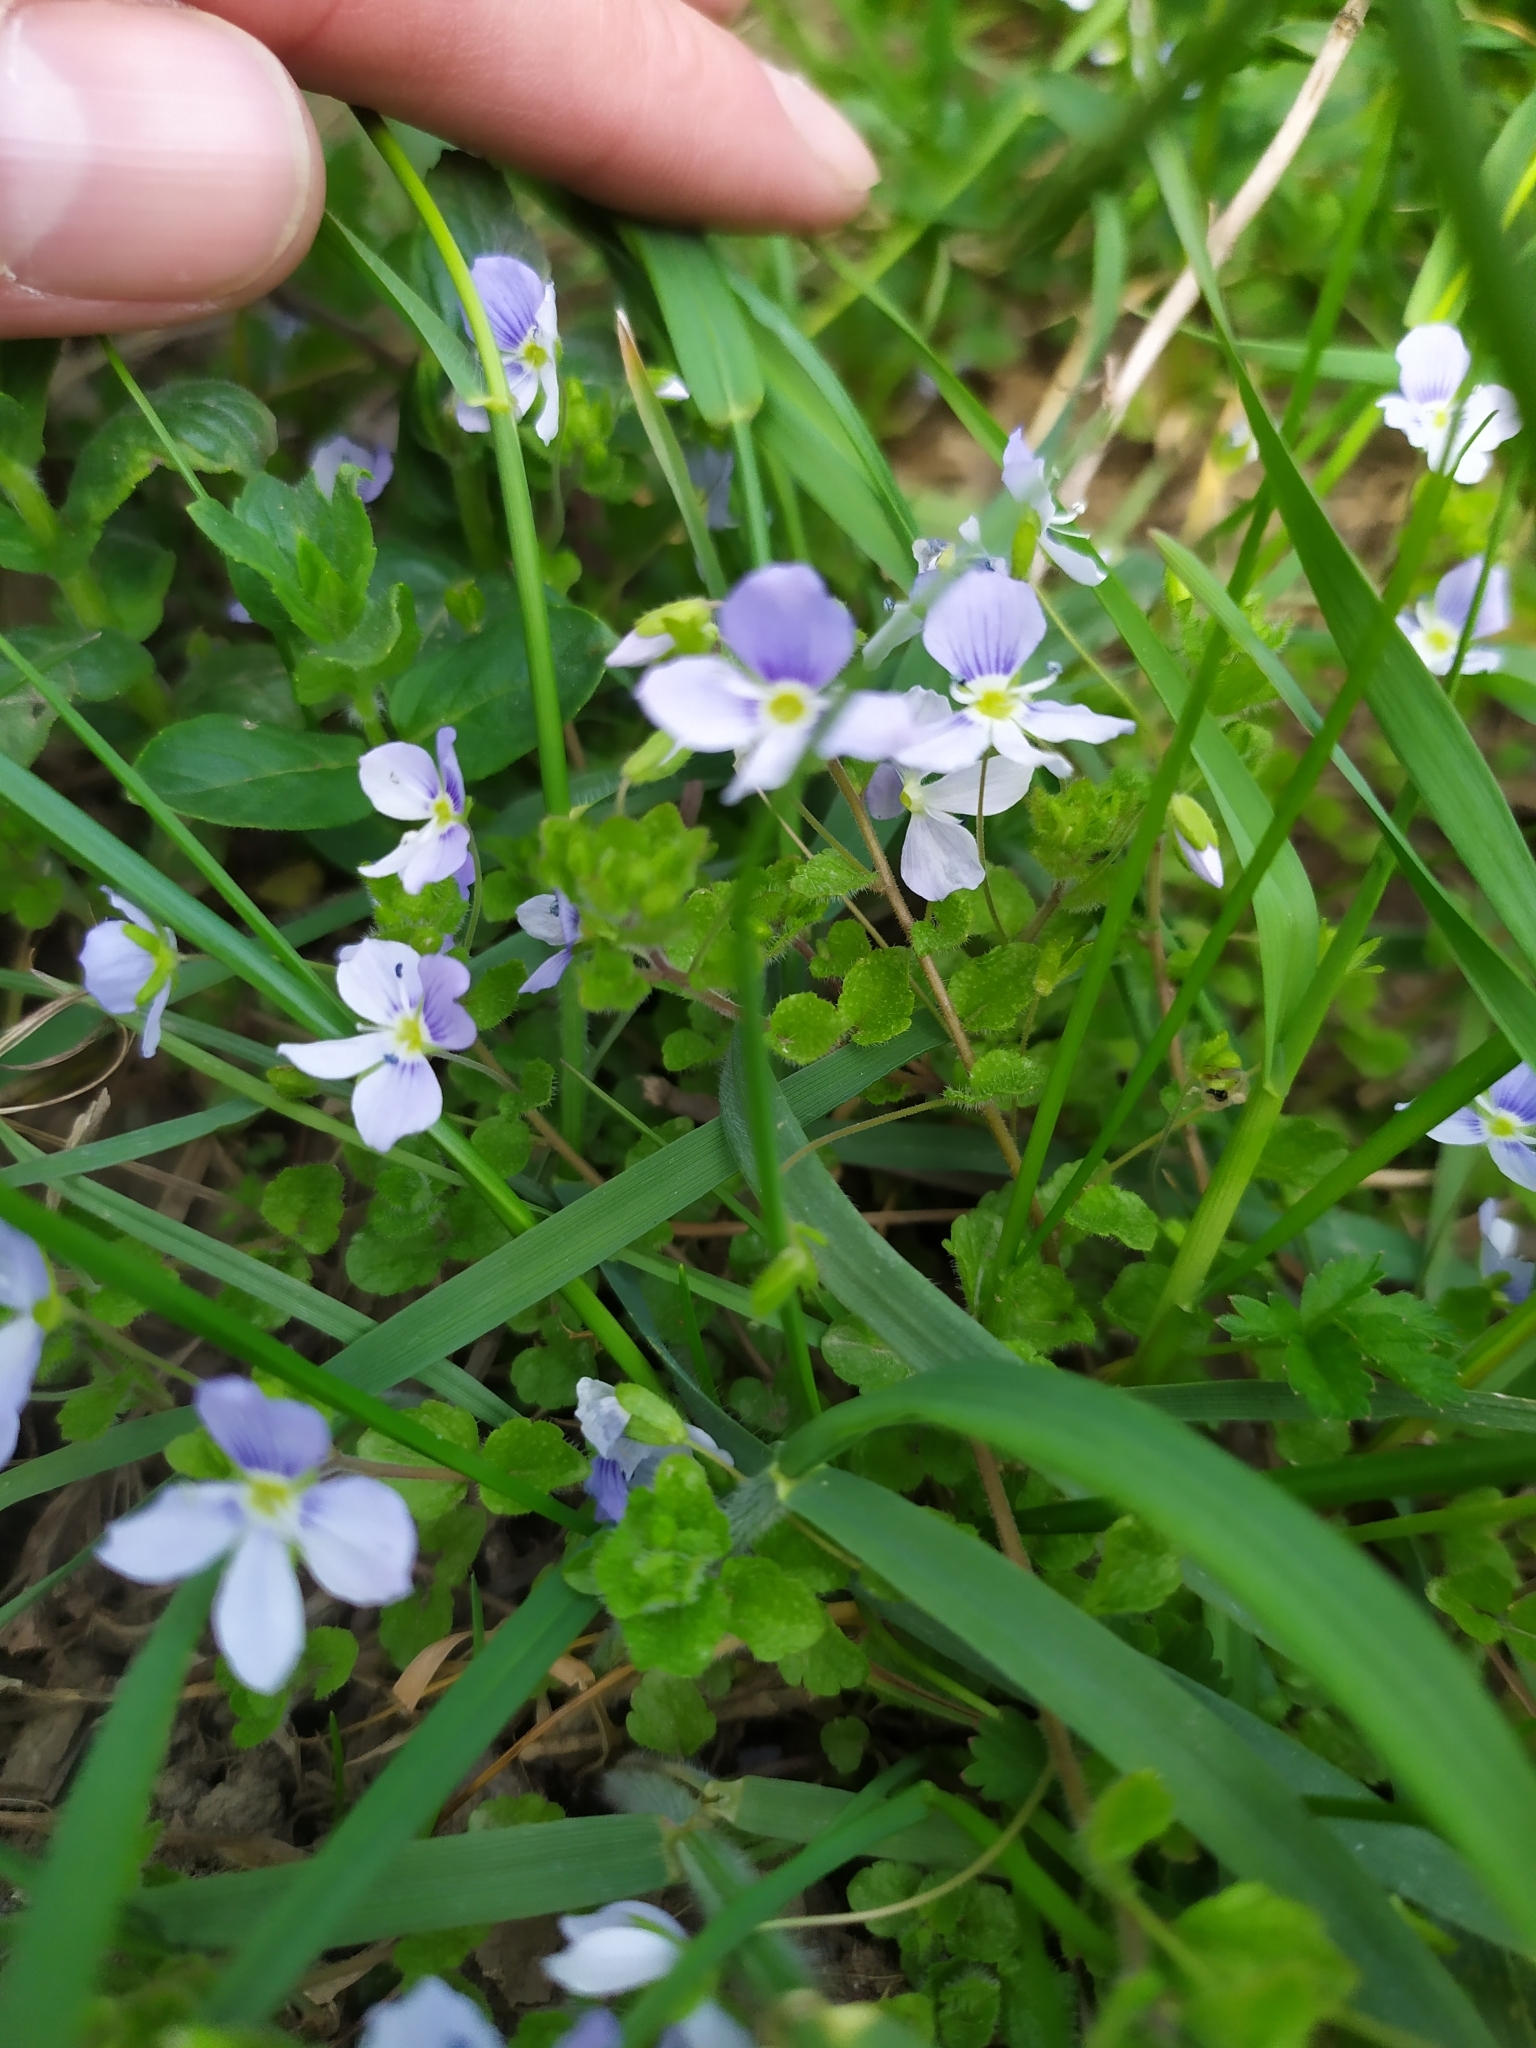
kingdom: Plantae
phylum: Tracheophyta
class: Magnoliopsida
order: Lamiales
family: Plantaginaceae
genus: Veronica
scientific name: Veronica filiformis
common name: Slender speedwell
